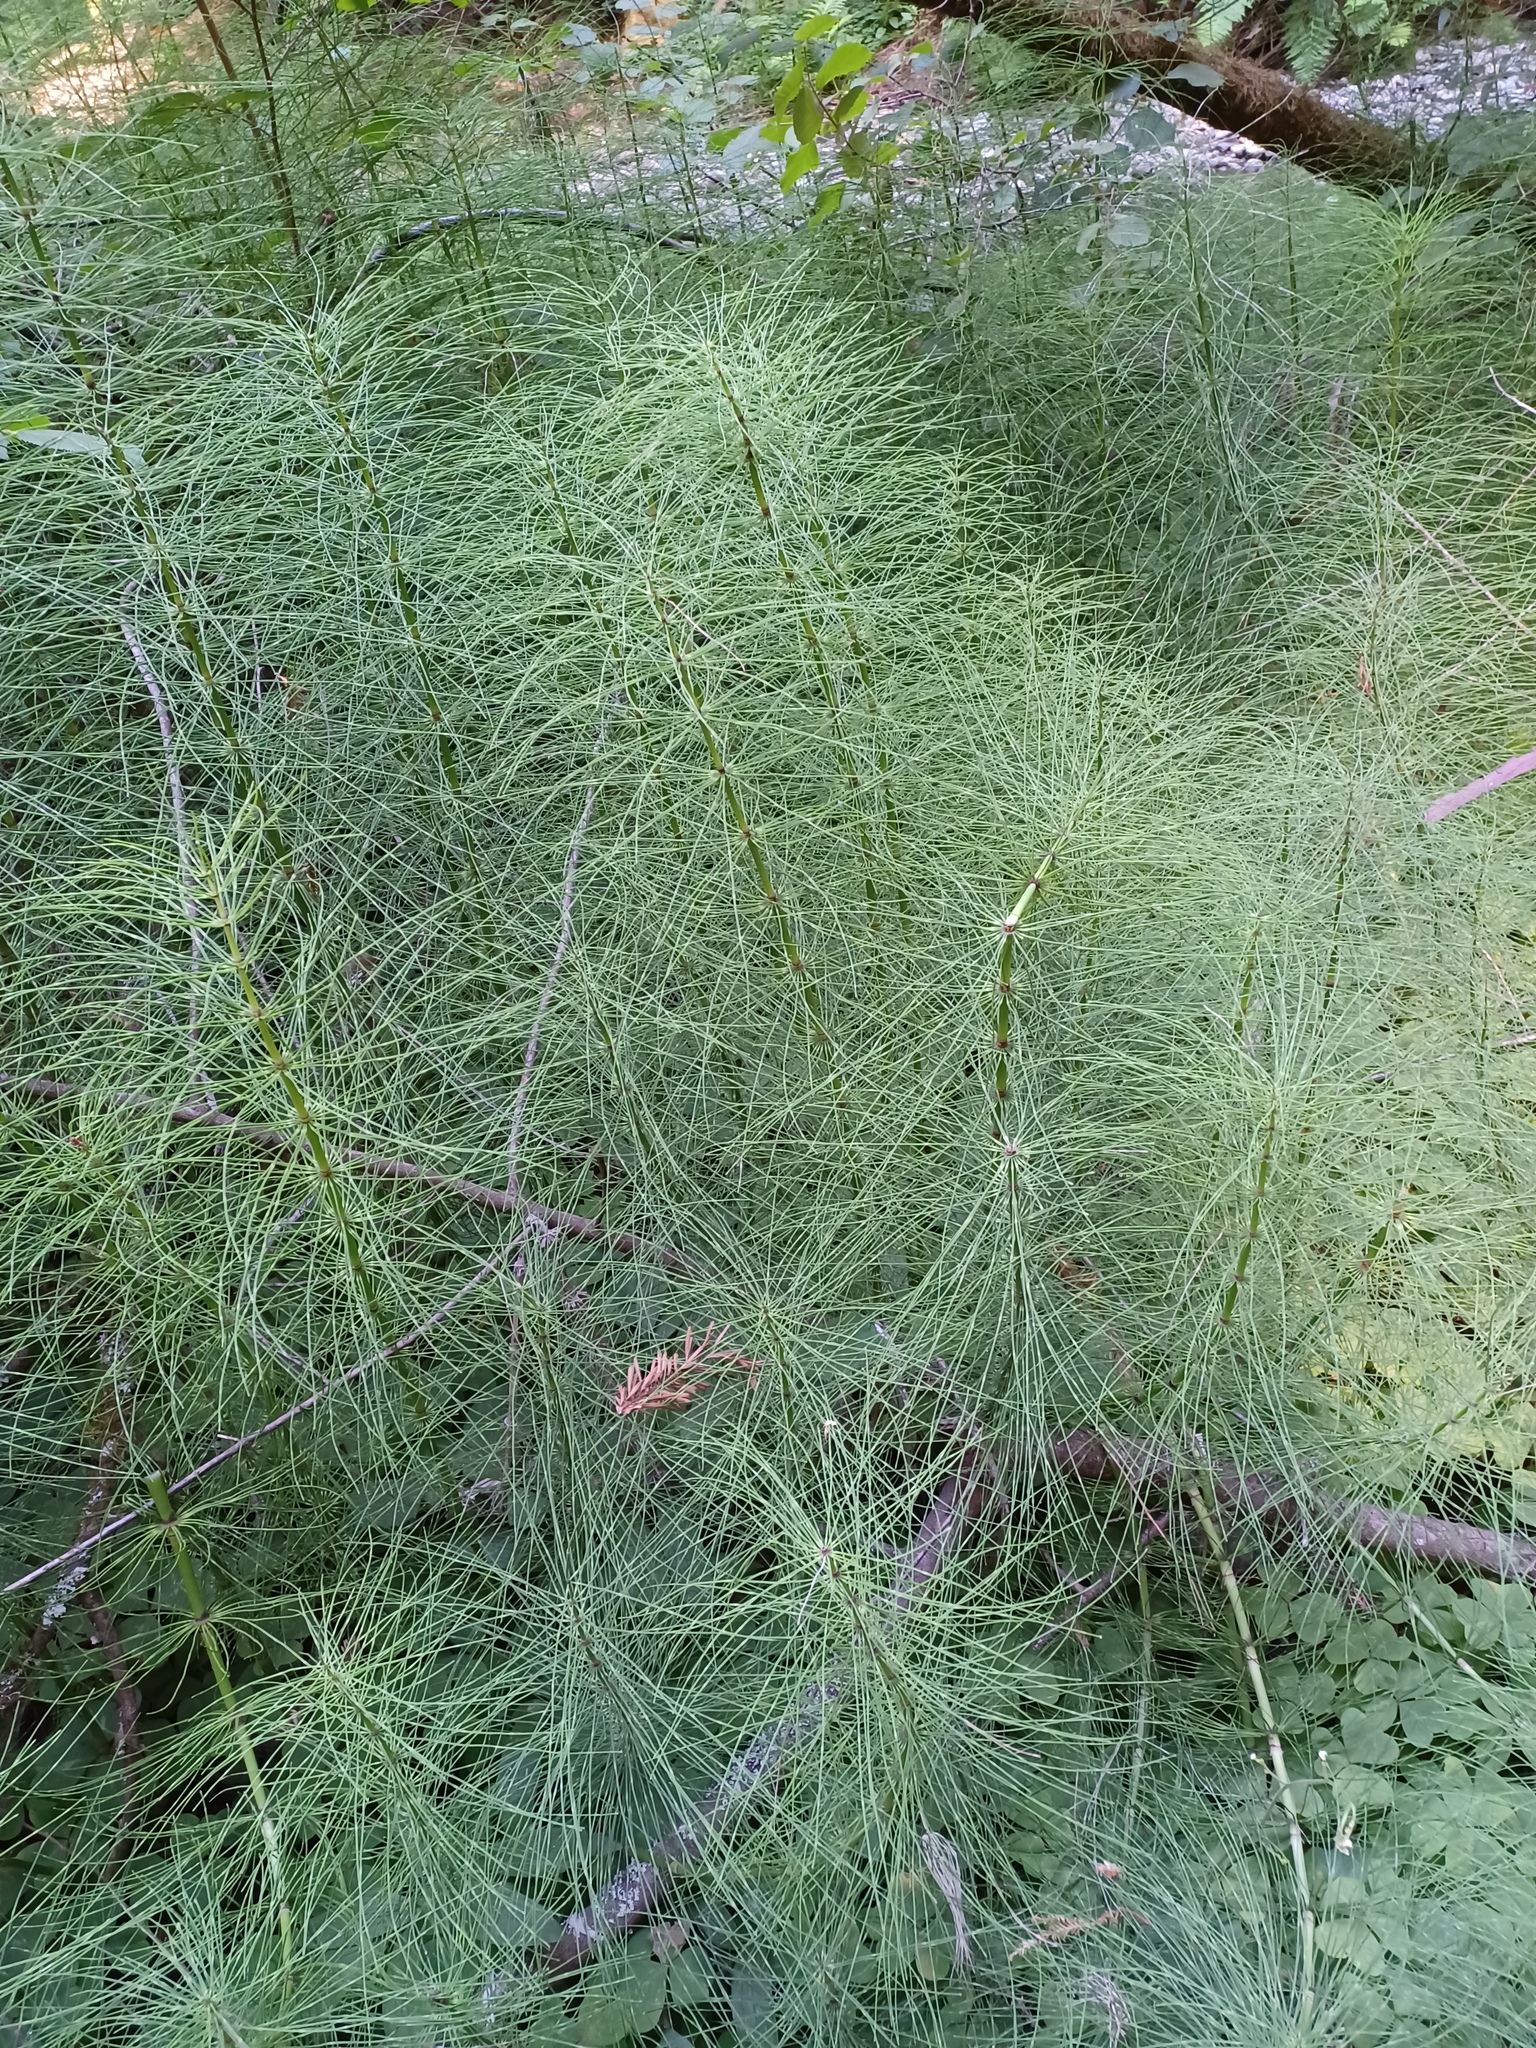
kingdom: Plantae
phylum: Tracheophyta
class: Polypodiopsida
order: Equisetales
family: Equisetaceae
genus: Equisetum
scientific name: Equisetum telmateia
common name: Great horsetail
